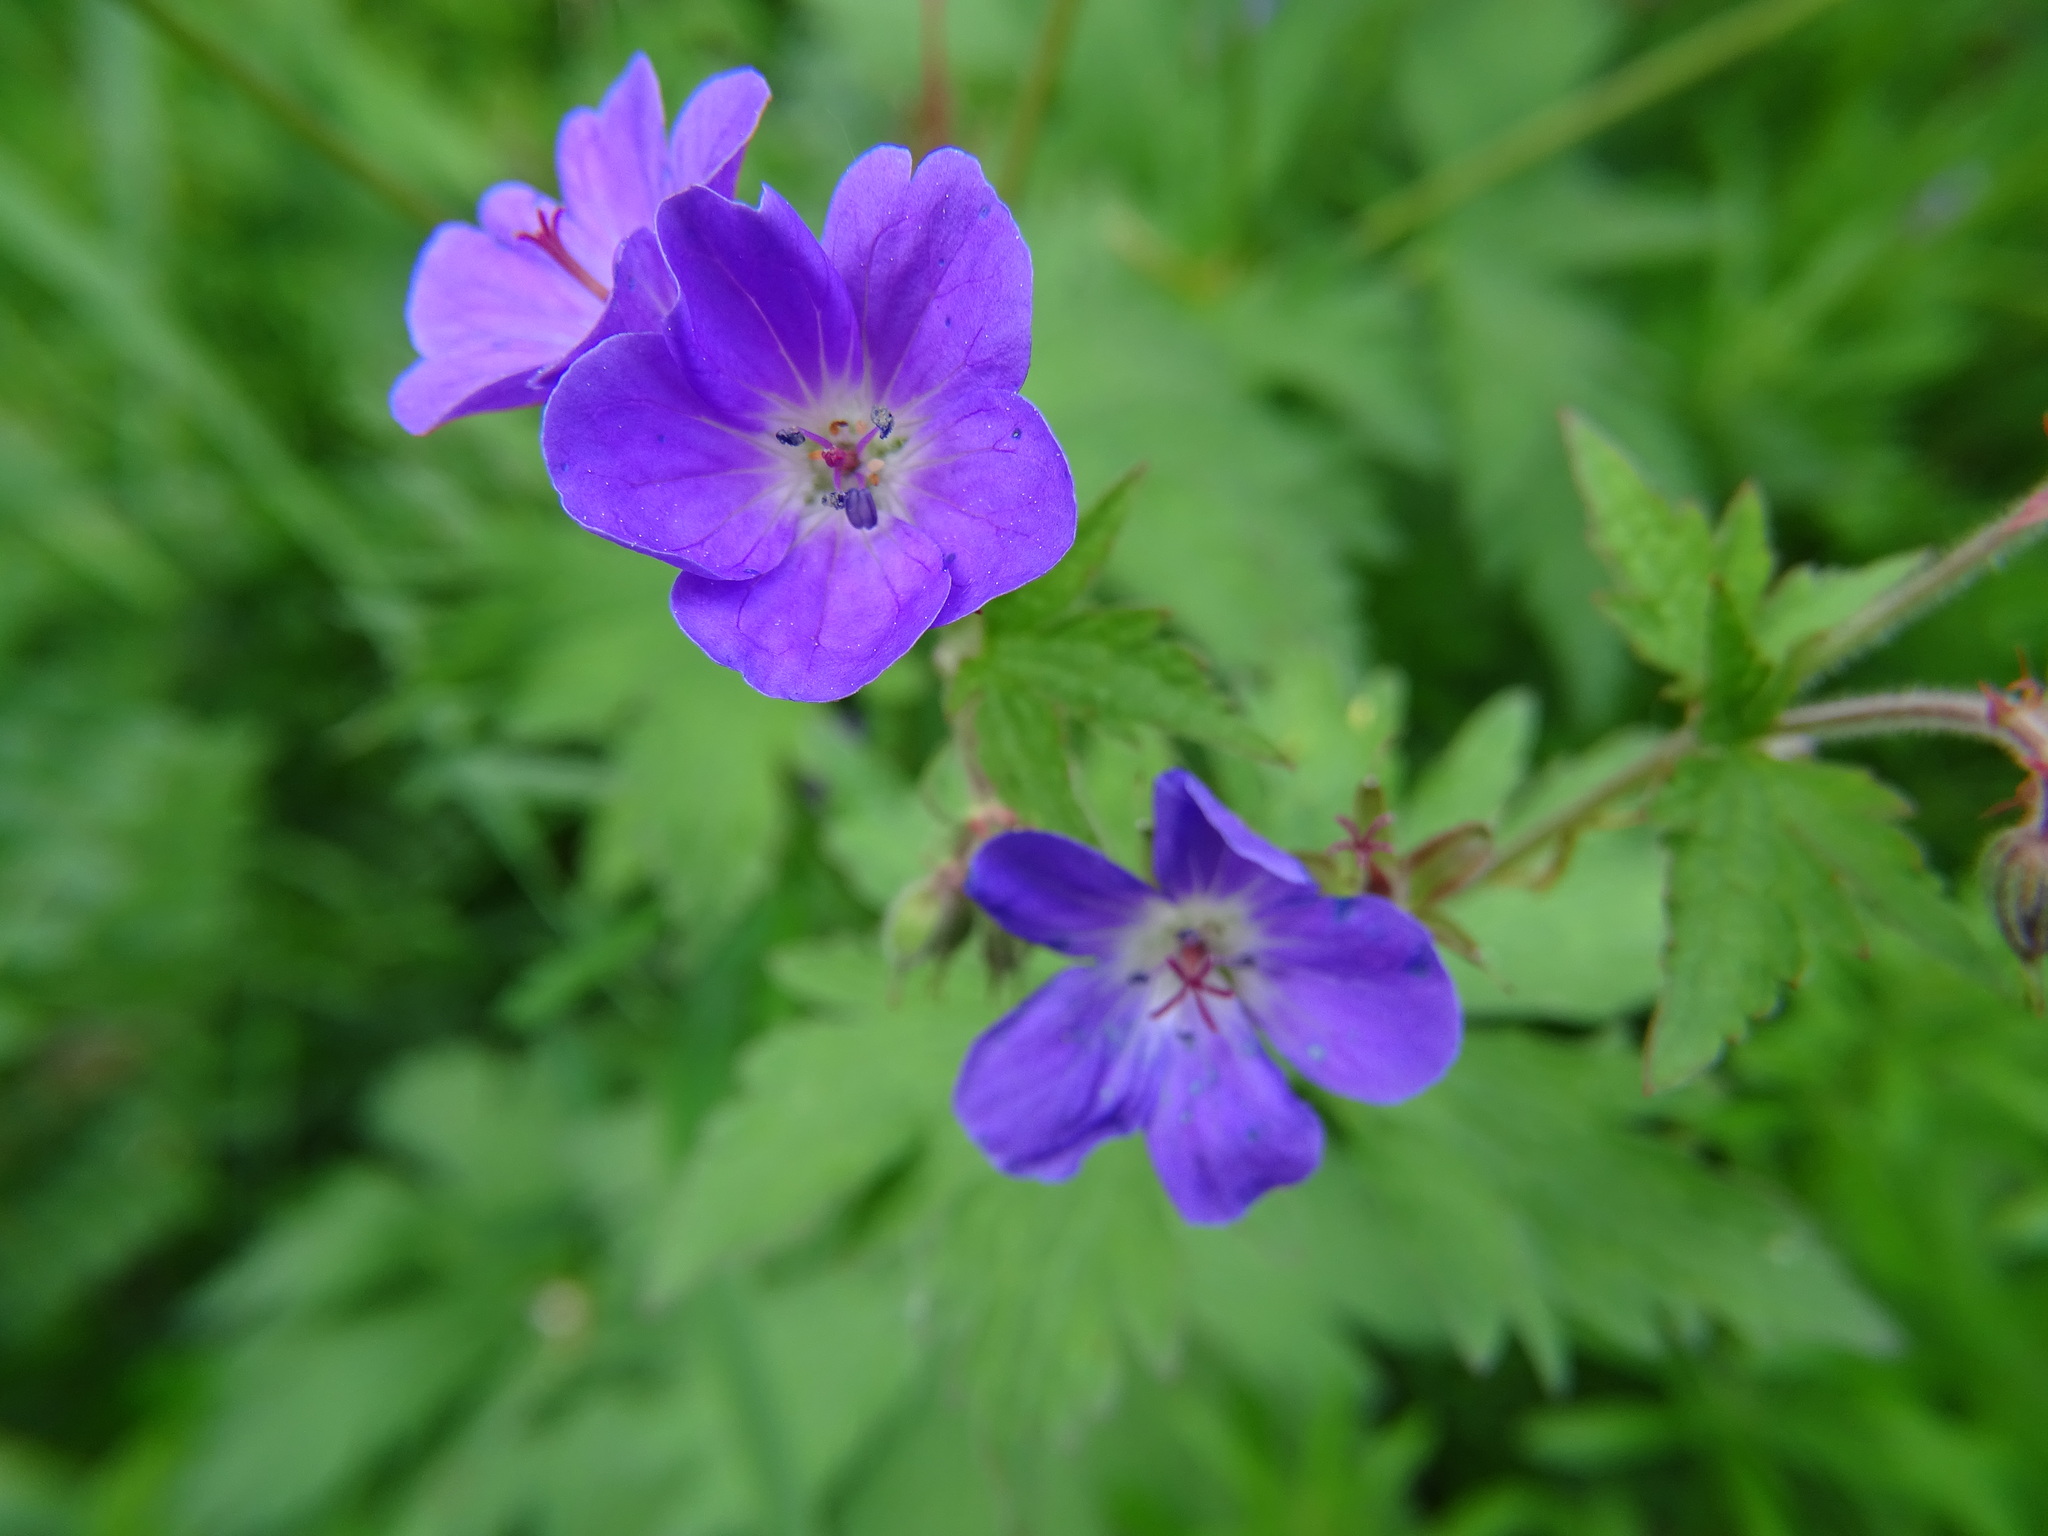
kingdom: Plantae
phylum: Tracheophyta
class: Magnoliopsida
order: Geraniales
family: Geraniaceae
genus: Geranium
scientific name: Geranium sylvaticum
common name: Wood crane's-bill
